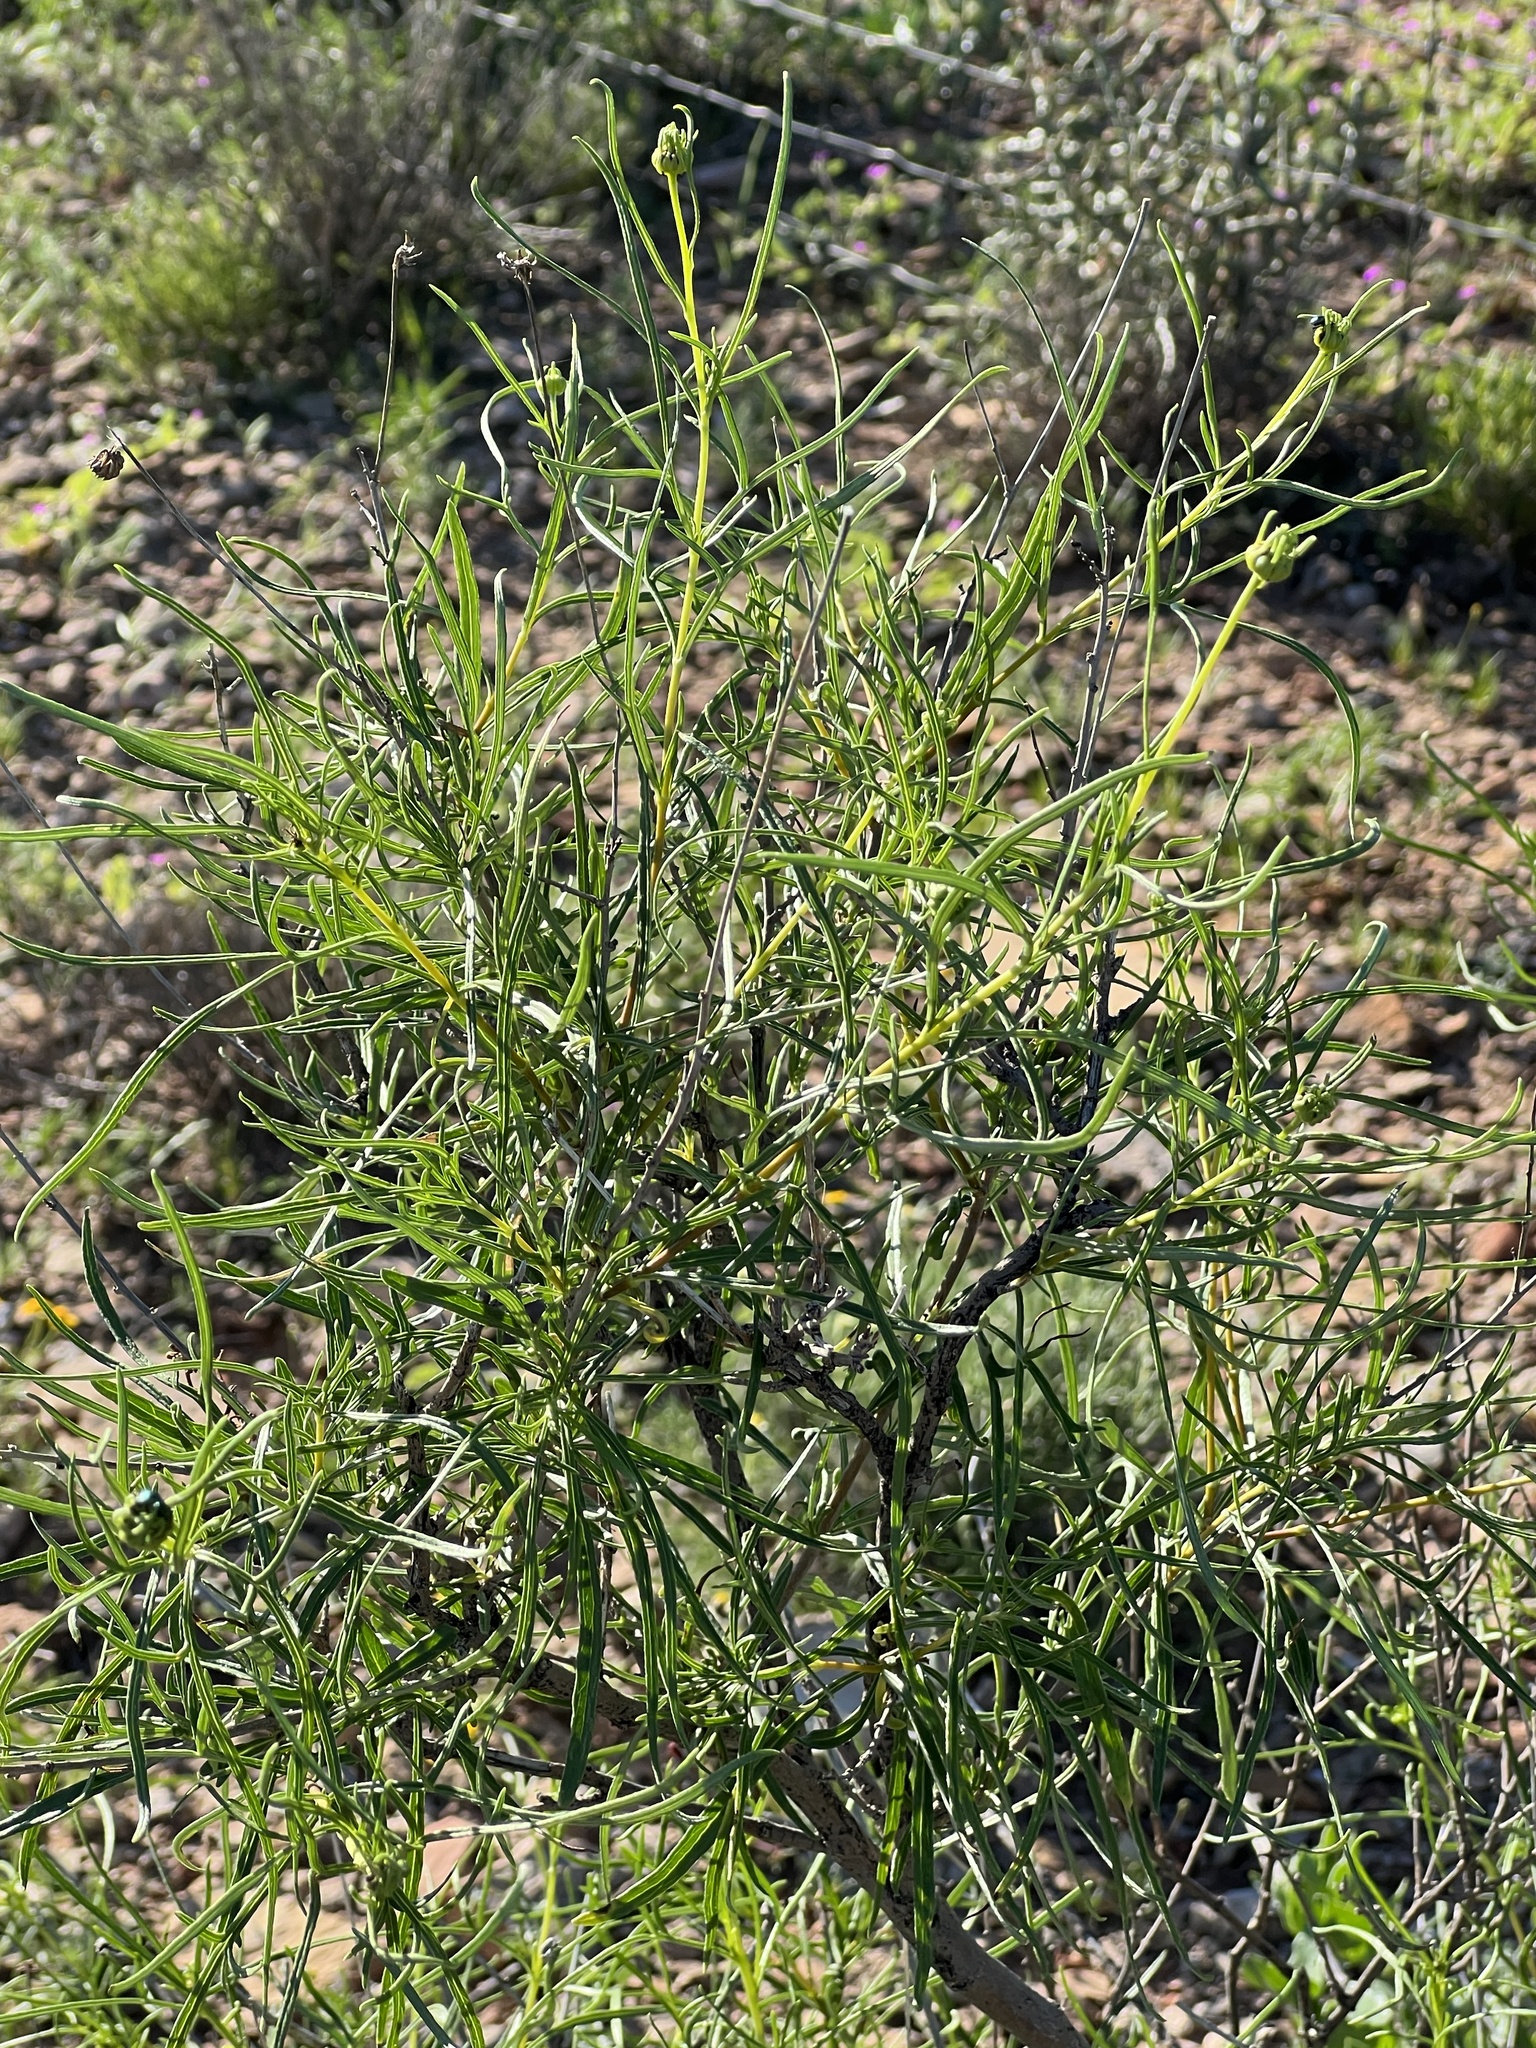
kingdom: Plantae
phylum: Tracheophyta
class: Magnoliopsida
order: Asterales
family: Asteraceae
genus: Sidneya
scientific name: Sidneya tenuifolia
